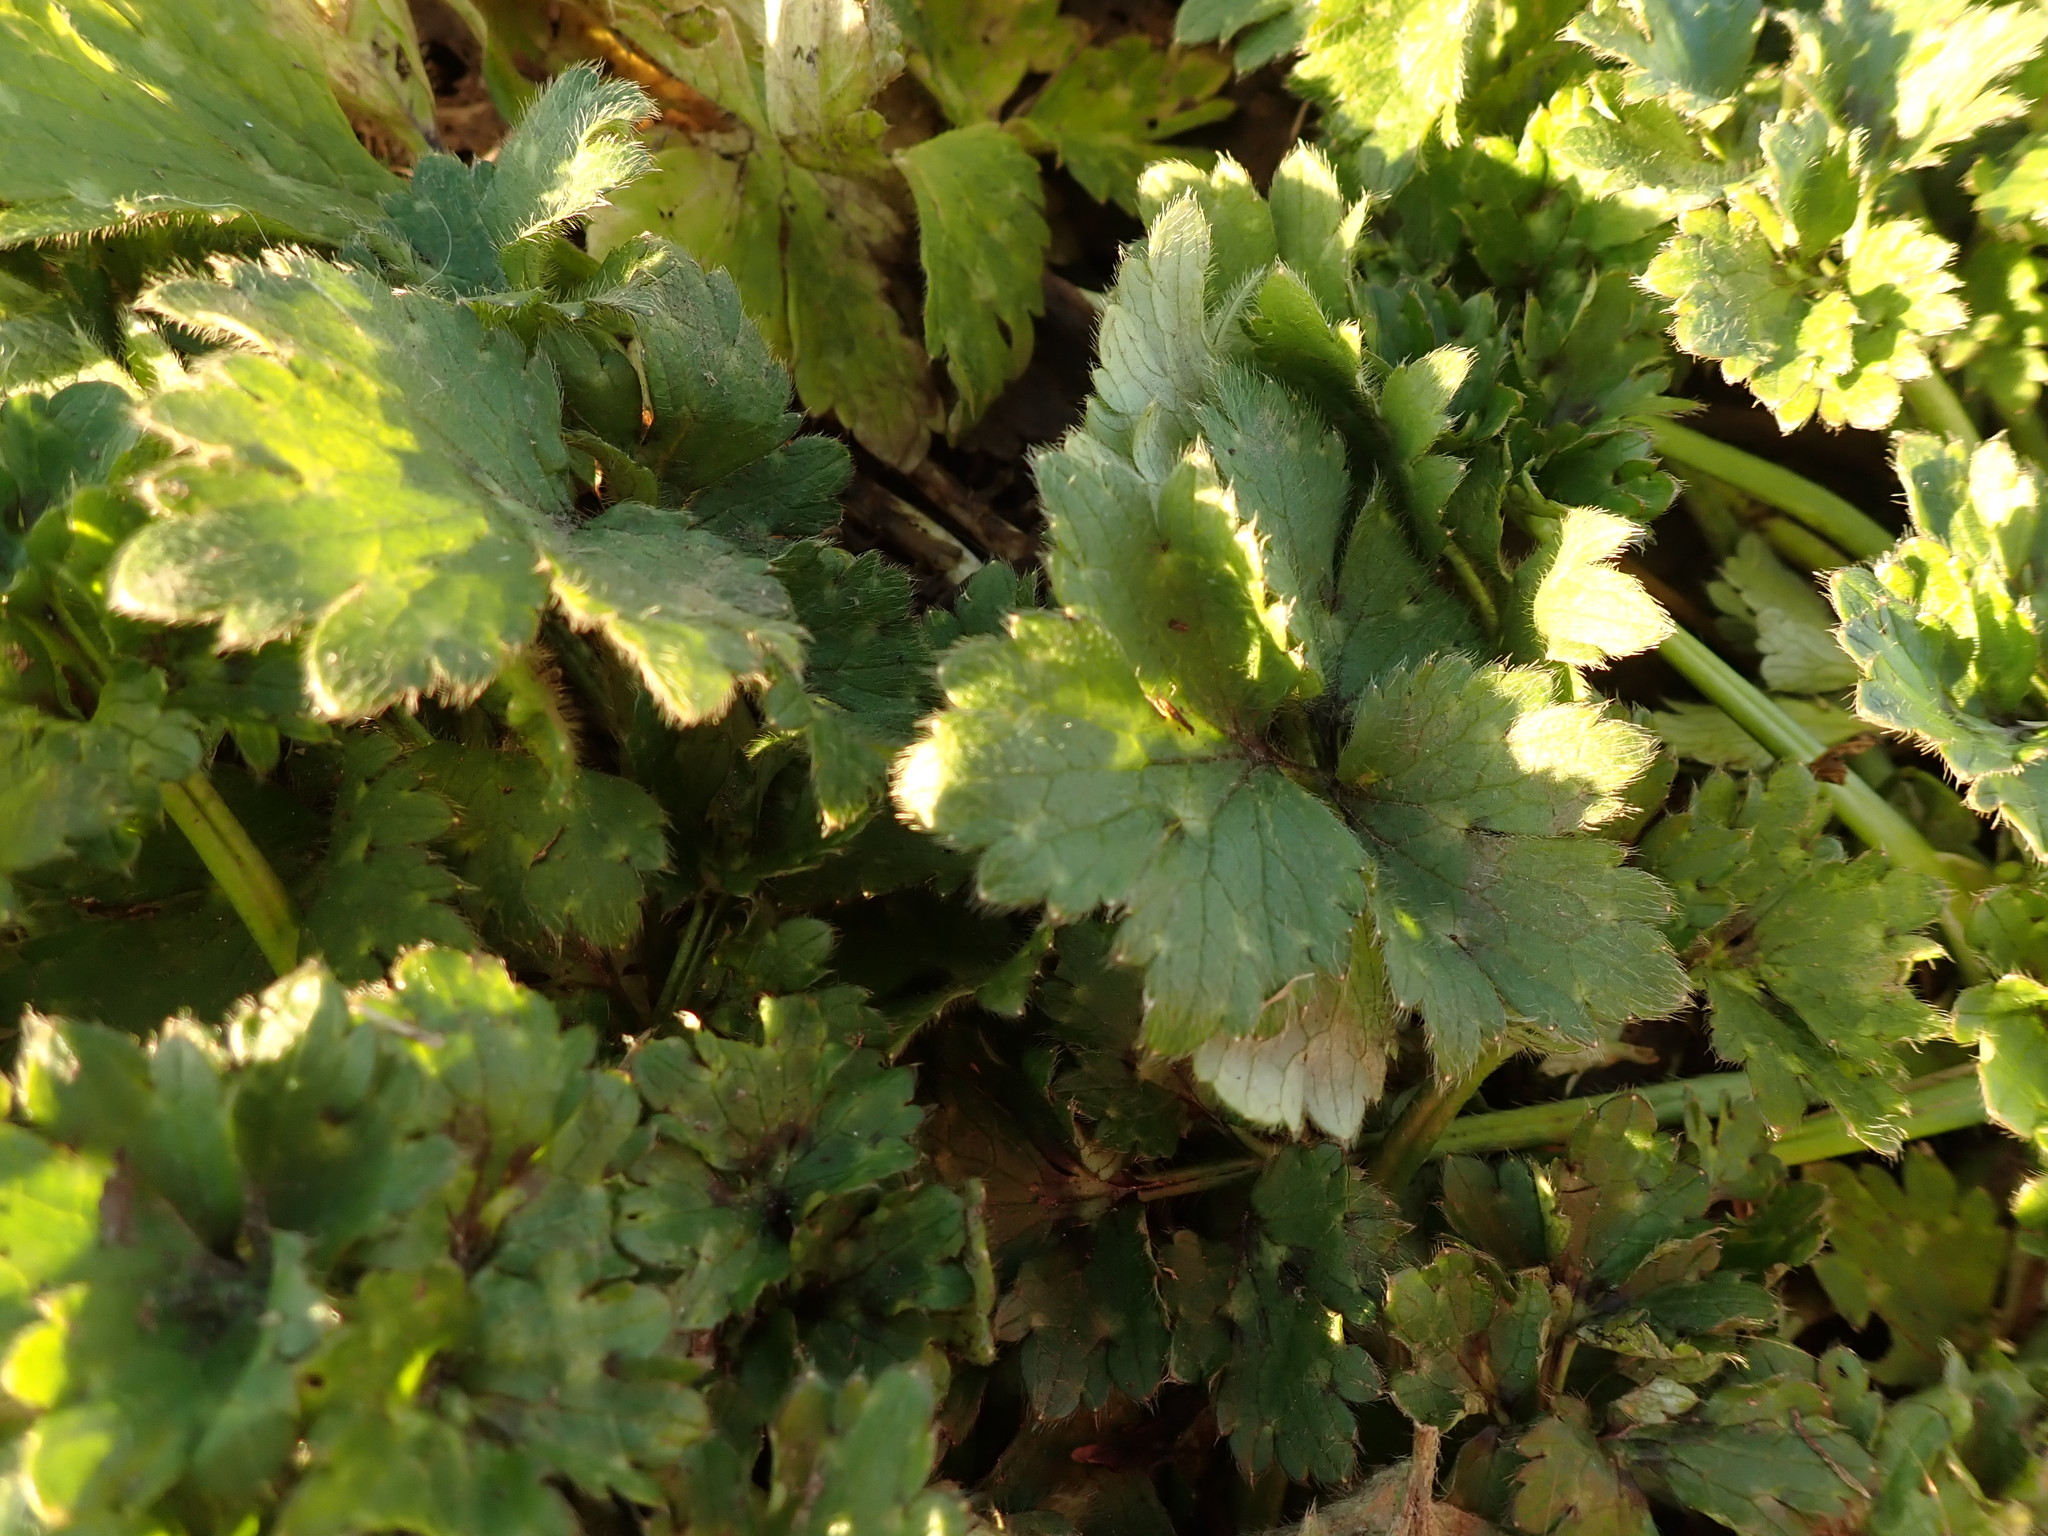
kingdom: Plantae
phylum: Tracheophyta
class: Magnoliopsida
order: Ranunculales
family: Ranunculaceae
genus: Ranunculus
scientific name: Ranunculus repens
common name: Creeping buttercup
